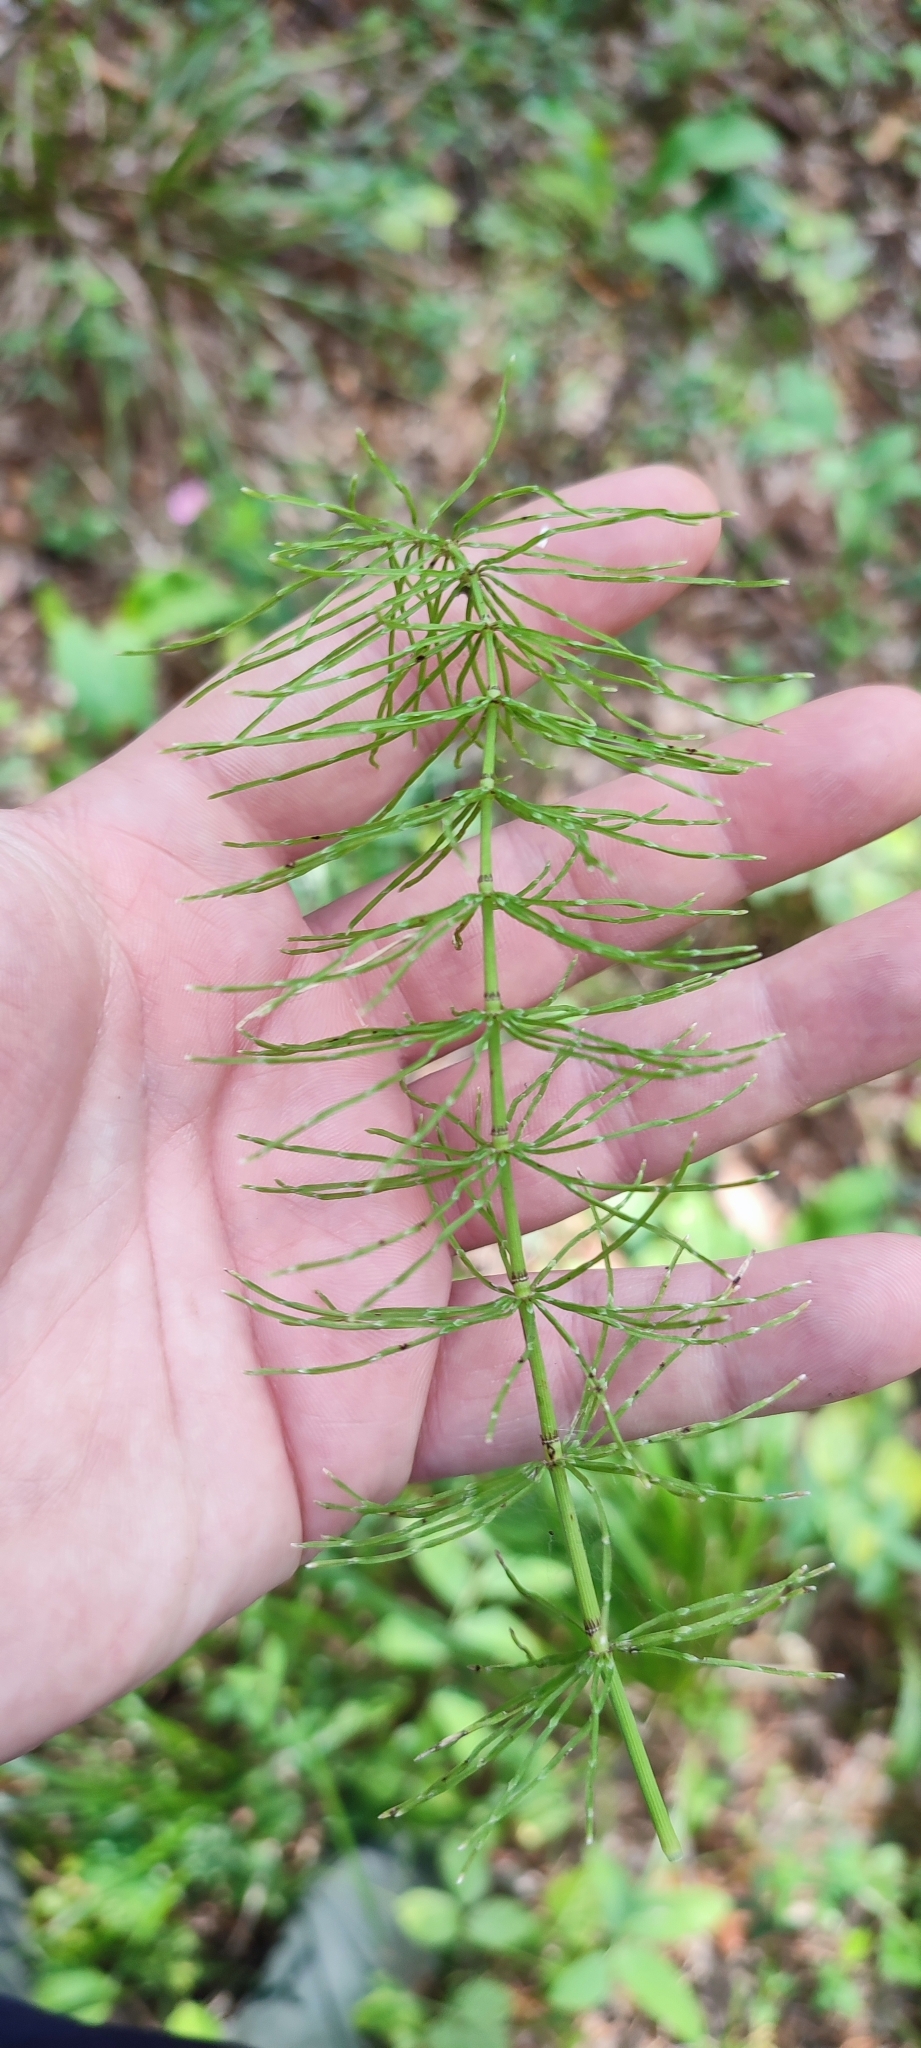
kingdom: Plantae
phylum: Tracheophyta
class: Polypodiopsida
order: Equisetales
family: Equisetaceae
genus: Equisetum
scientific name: Equisetum pratense
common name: Meadow horsetail
